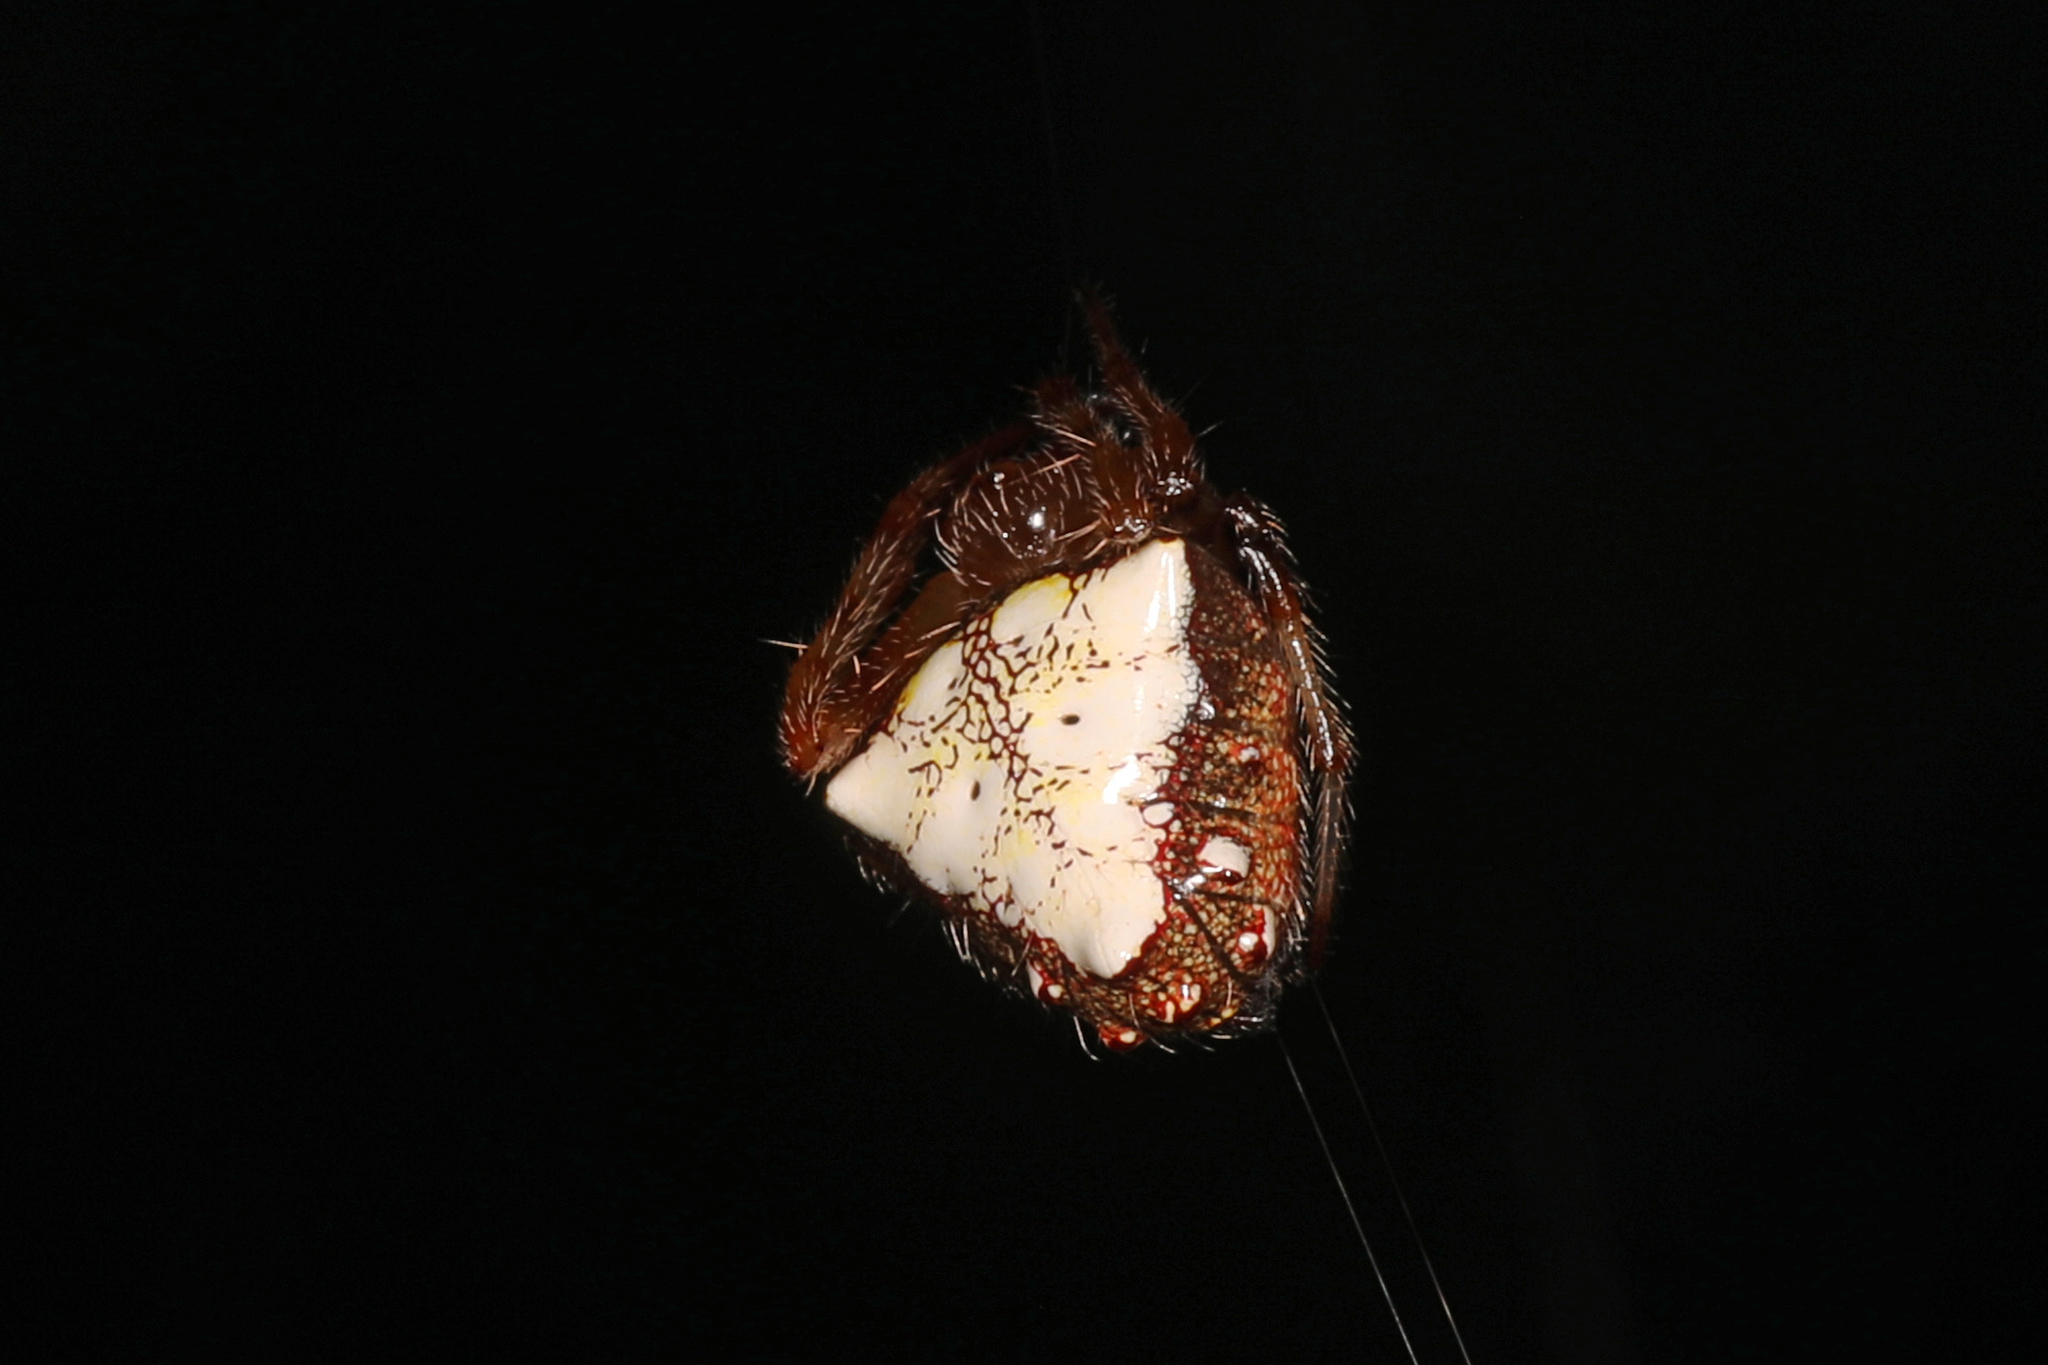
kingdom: Animalia
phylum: Arthropoda
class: Arachnida
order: Araneae
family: Araneidae
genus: Verrucosa
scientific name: Verrucosa arenata
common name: Orb weavers
